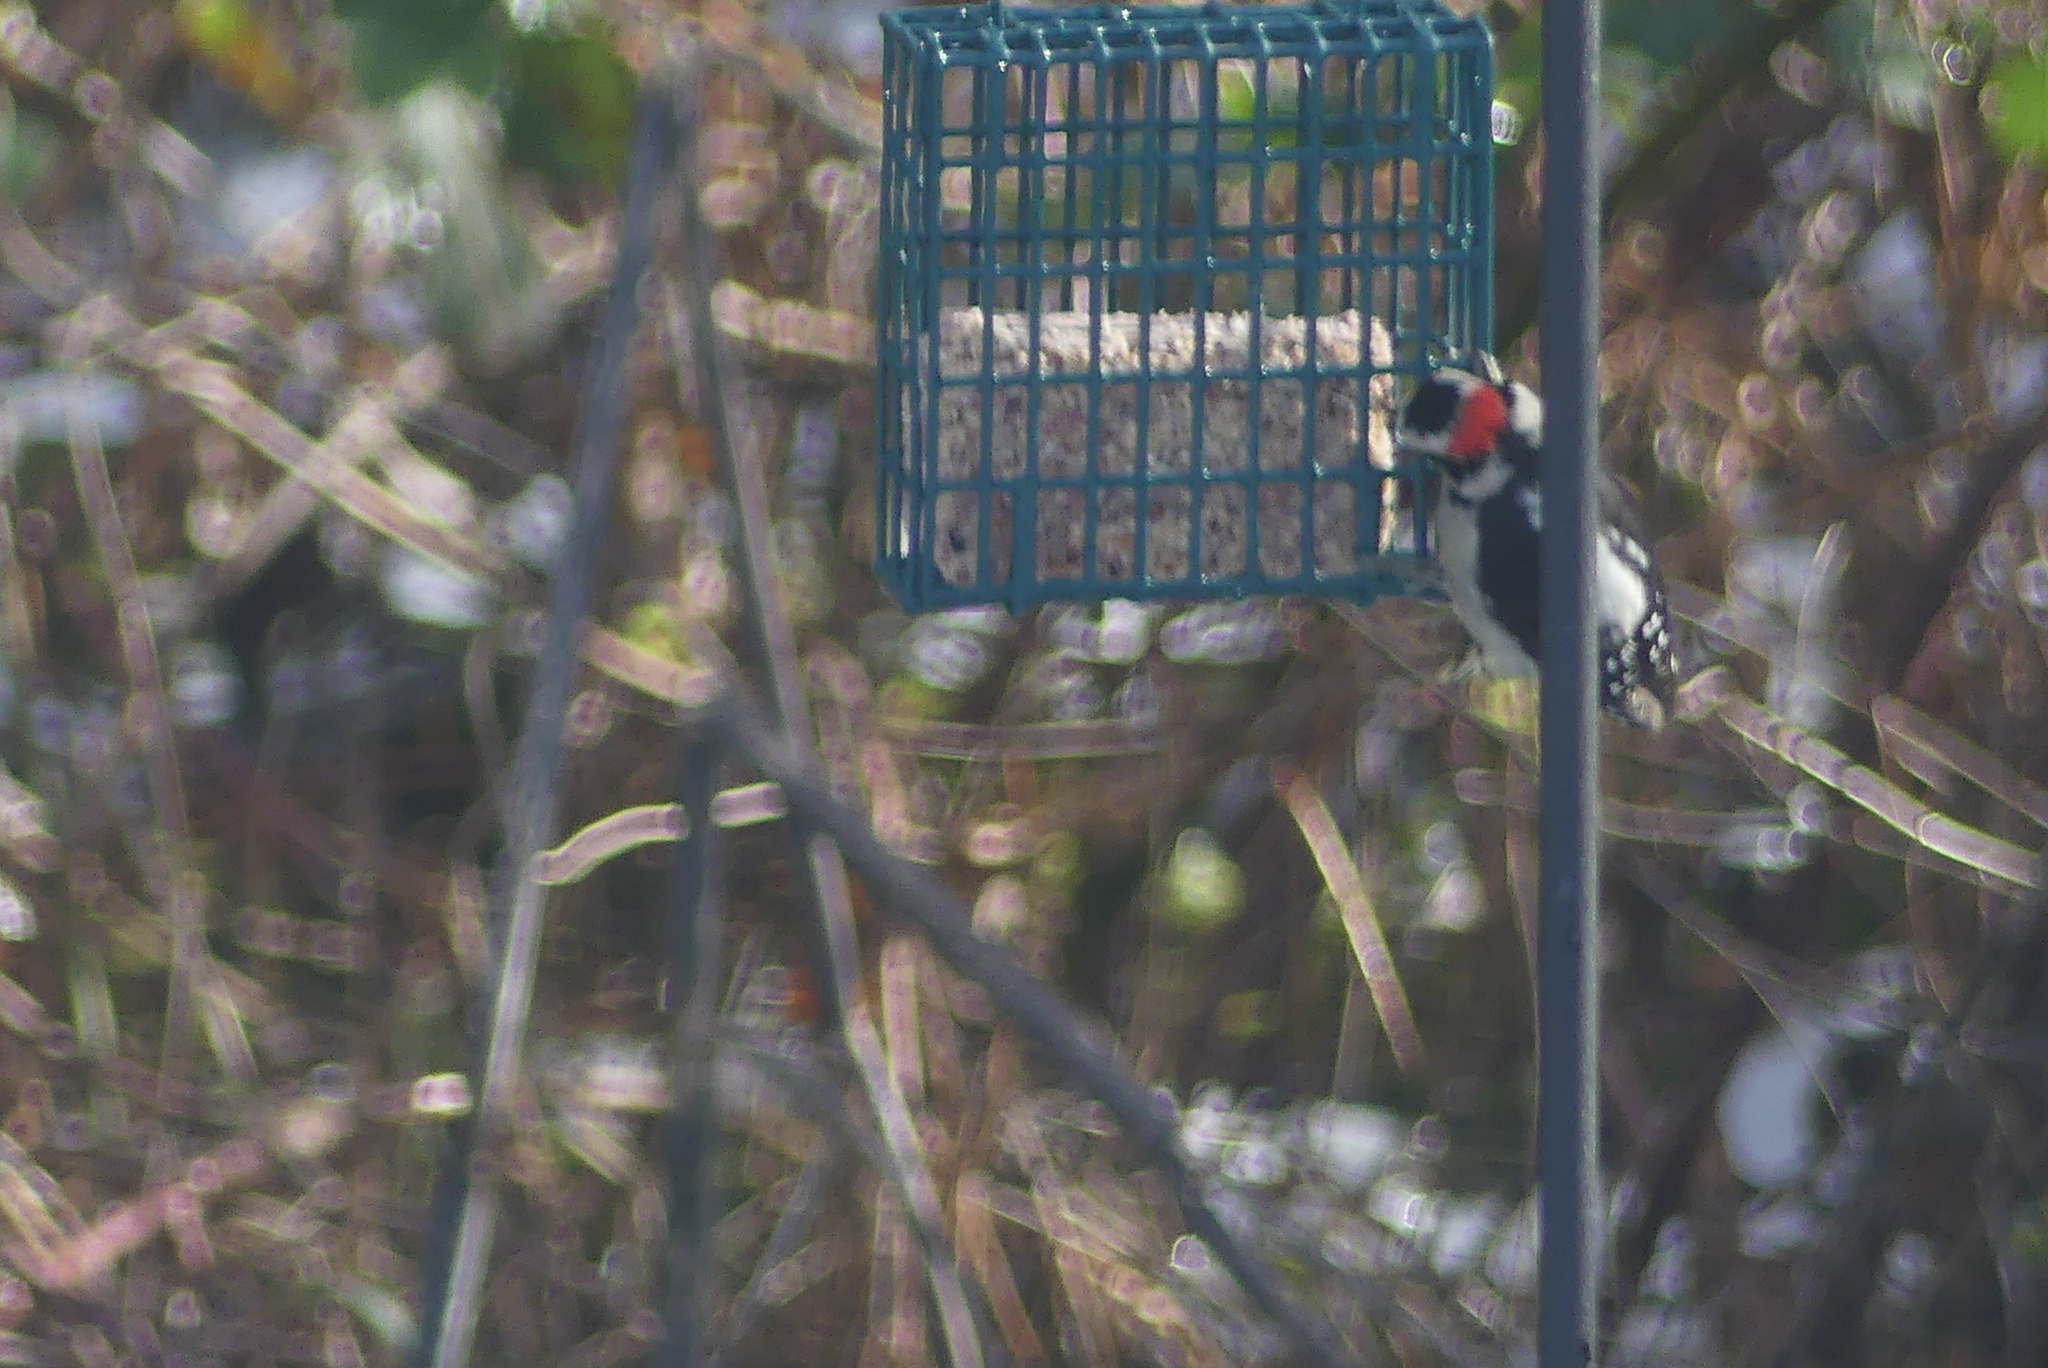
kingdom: Animalia
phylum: Chordata
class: Aves
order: Piciformes
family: Picidae
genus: Dryobates
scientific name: Dryobates pubescens
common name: Downy woodpecker
